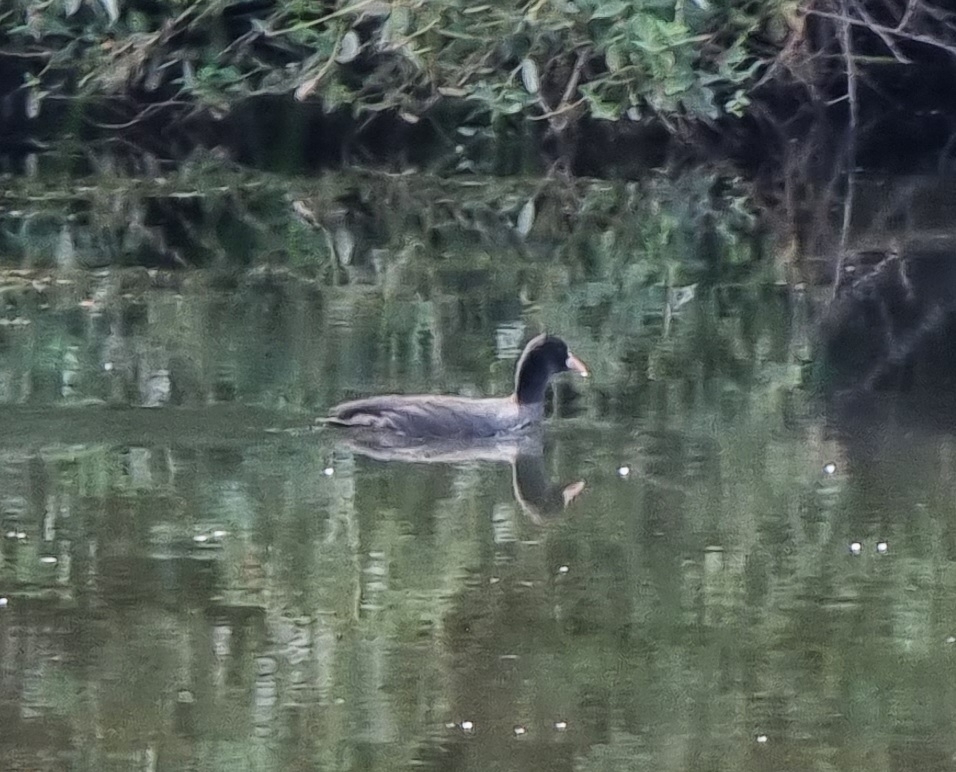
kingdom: Animalia
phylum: Chordata
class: Aves
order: Gruiformes
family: Rallidae
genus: Fulica
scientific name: Fulica atra
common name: Eurasian coot
